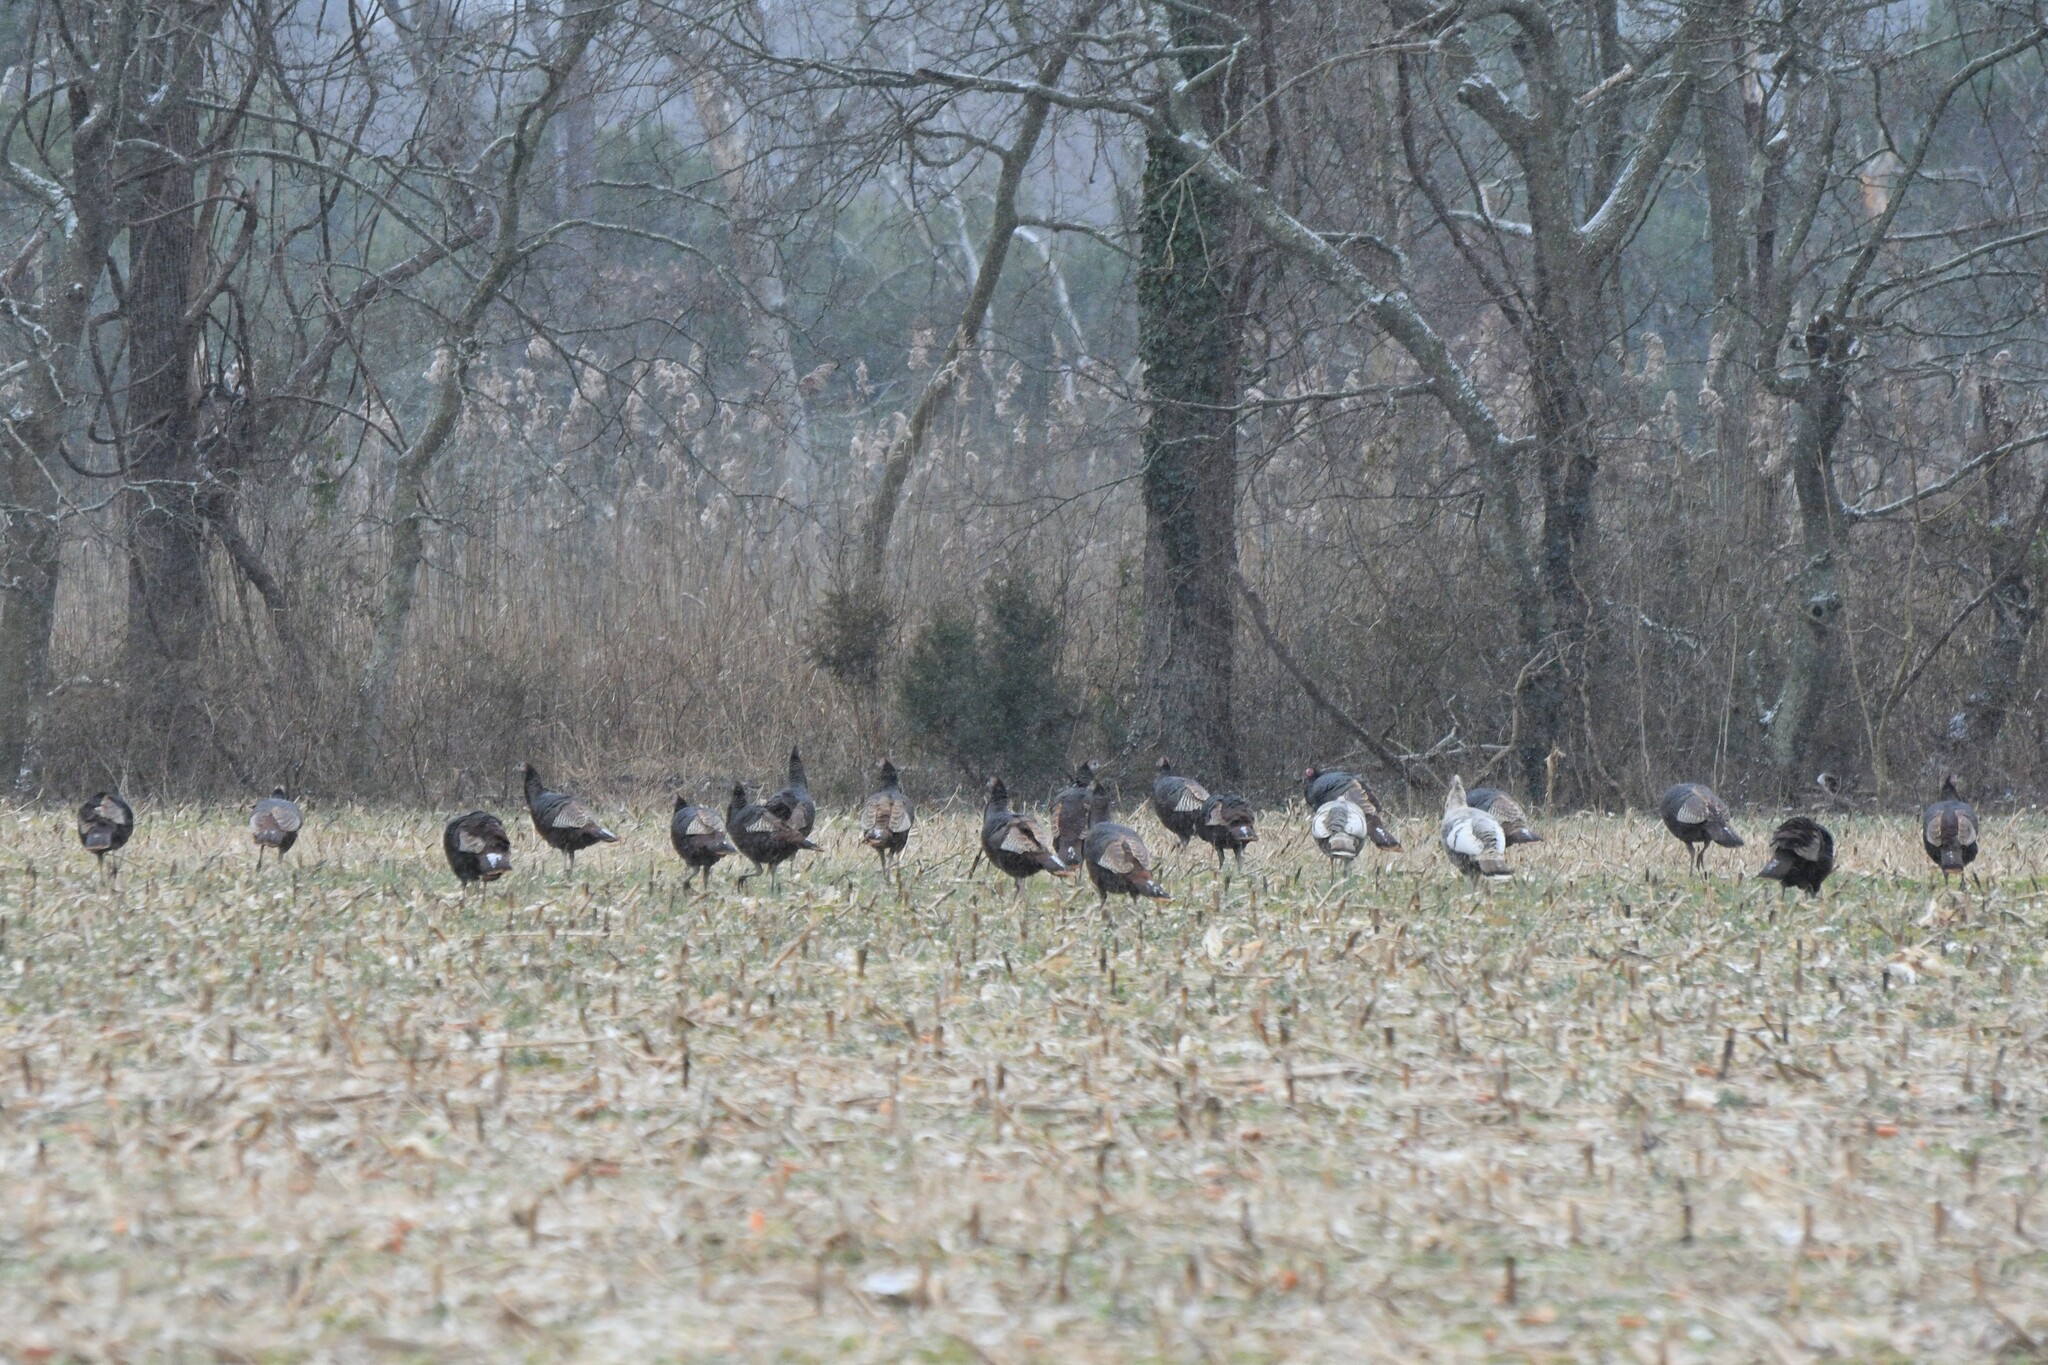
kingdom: Animalia
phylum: Chordata
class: Aves
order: Galliformes
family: Phasianidae
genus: Meleagris
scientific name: Meleagris gallopavo
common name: Wild turkey
